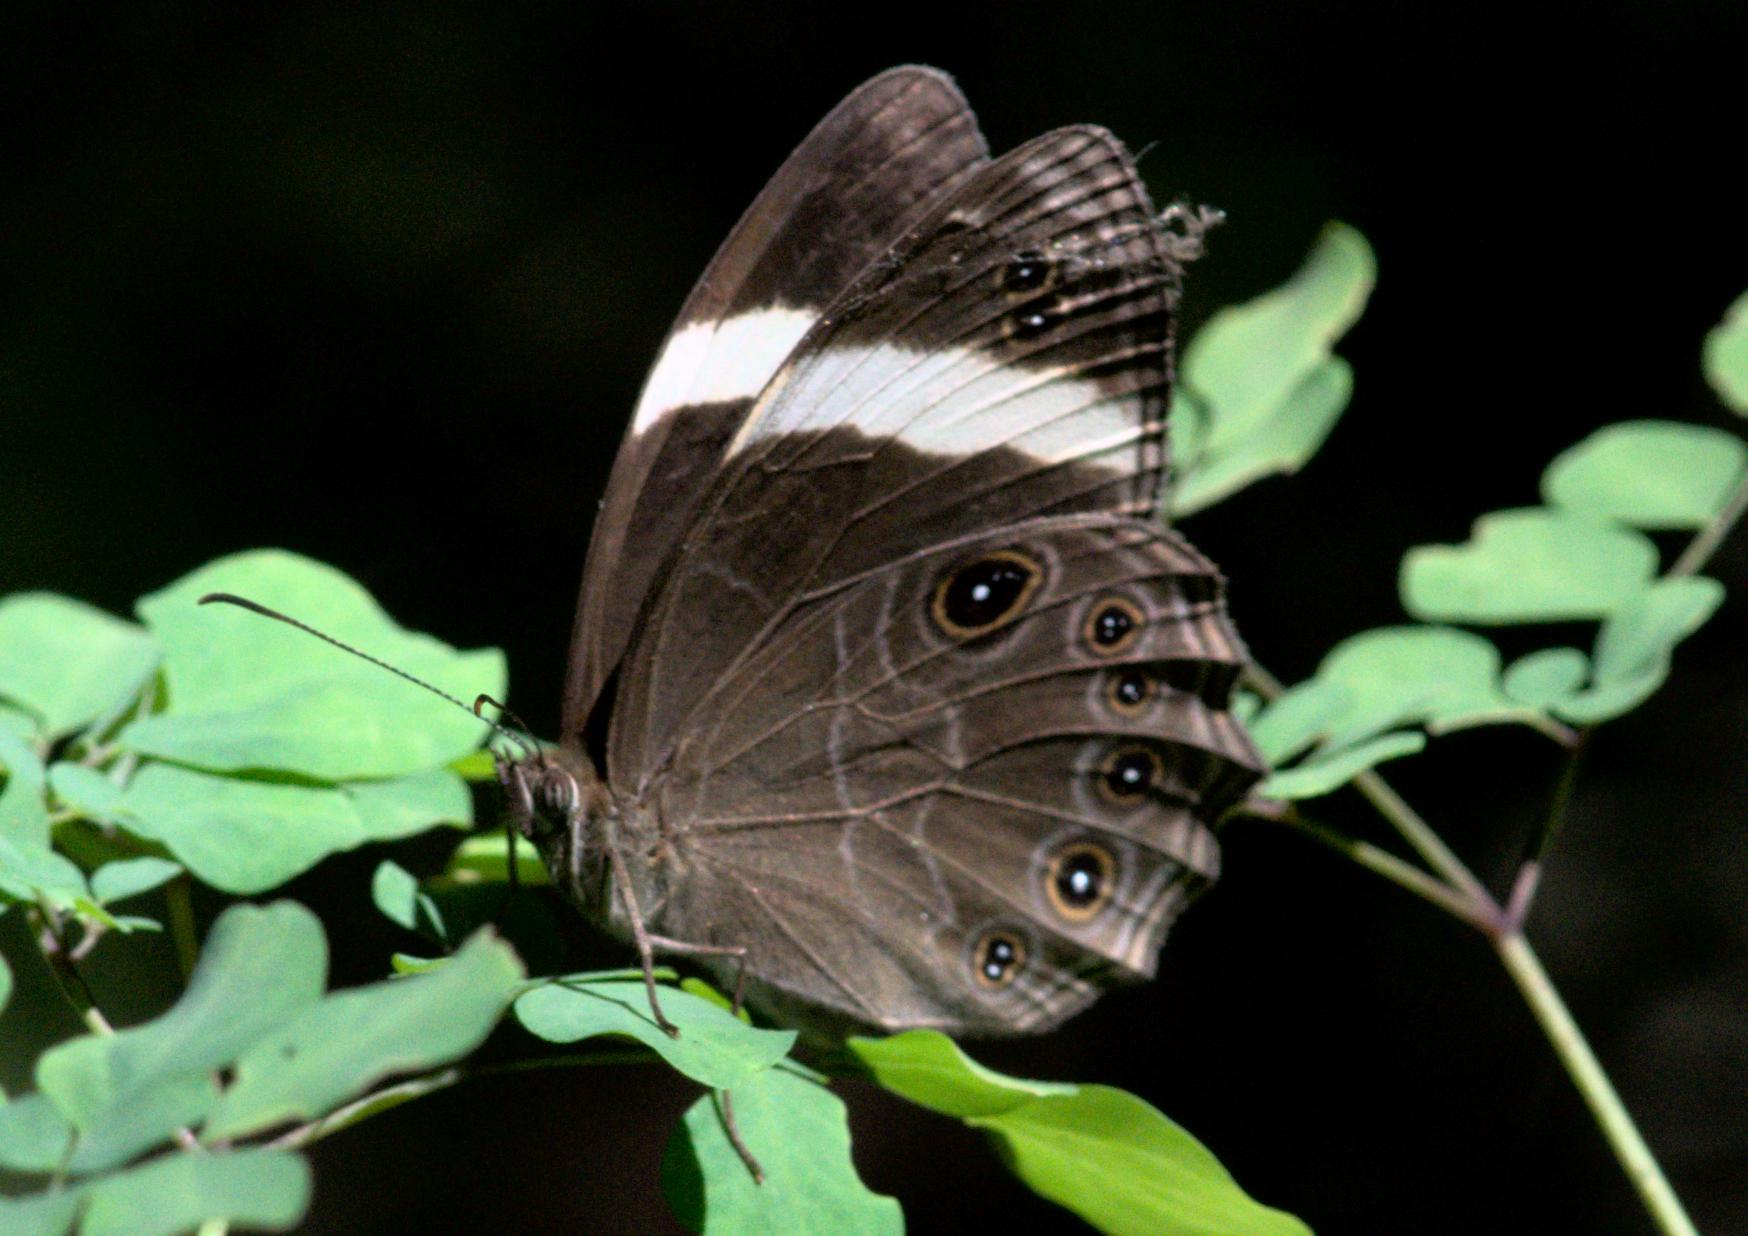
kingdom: Animalia
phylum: Arthropoda
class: Insecta
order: Lepidoptera
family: Nymphalidae
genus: Lethe
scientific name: Lethe verma
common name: Straight-banded treebrown
